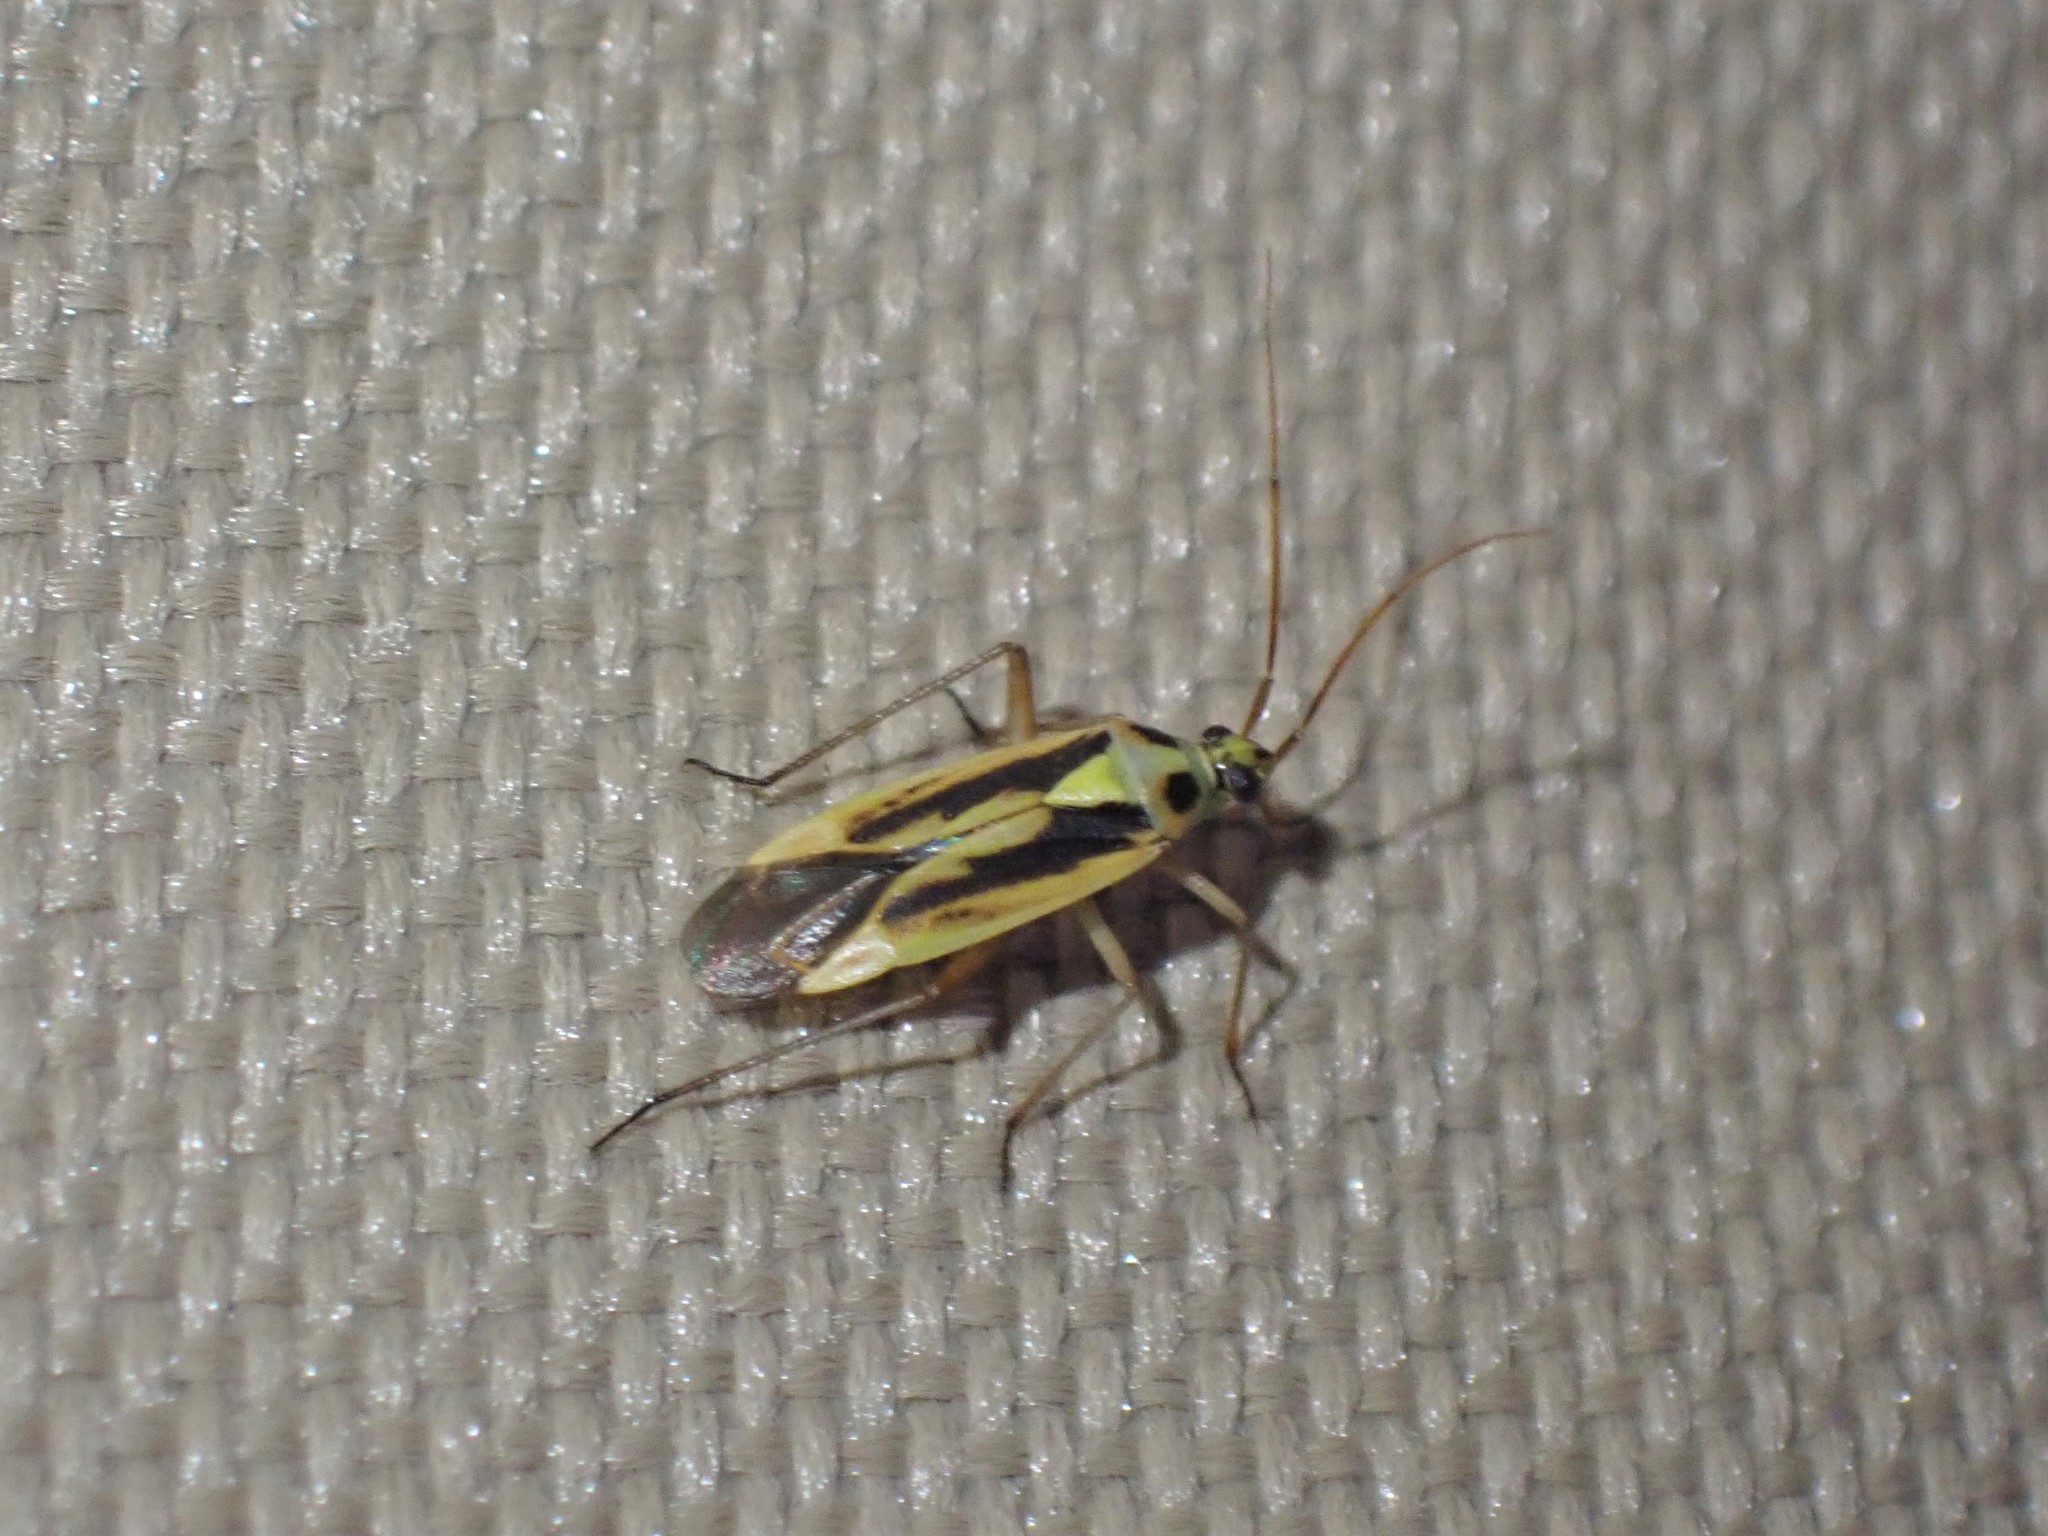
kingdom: Animalia
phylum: Arthropoda
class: Insecta
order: Hemiptera
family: Miridae
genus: Stenotus
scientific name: Stenotus binotatus
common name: Plant bug
